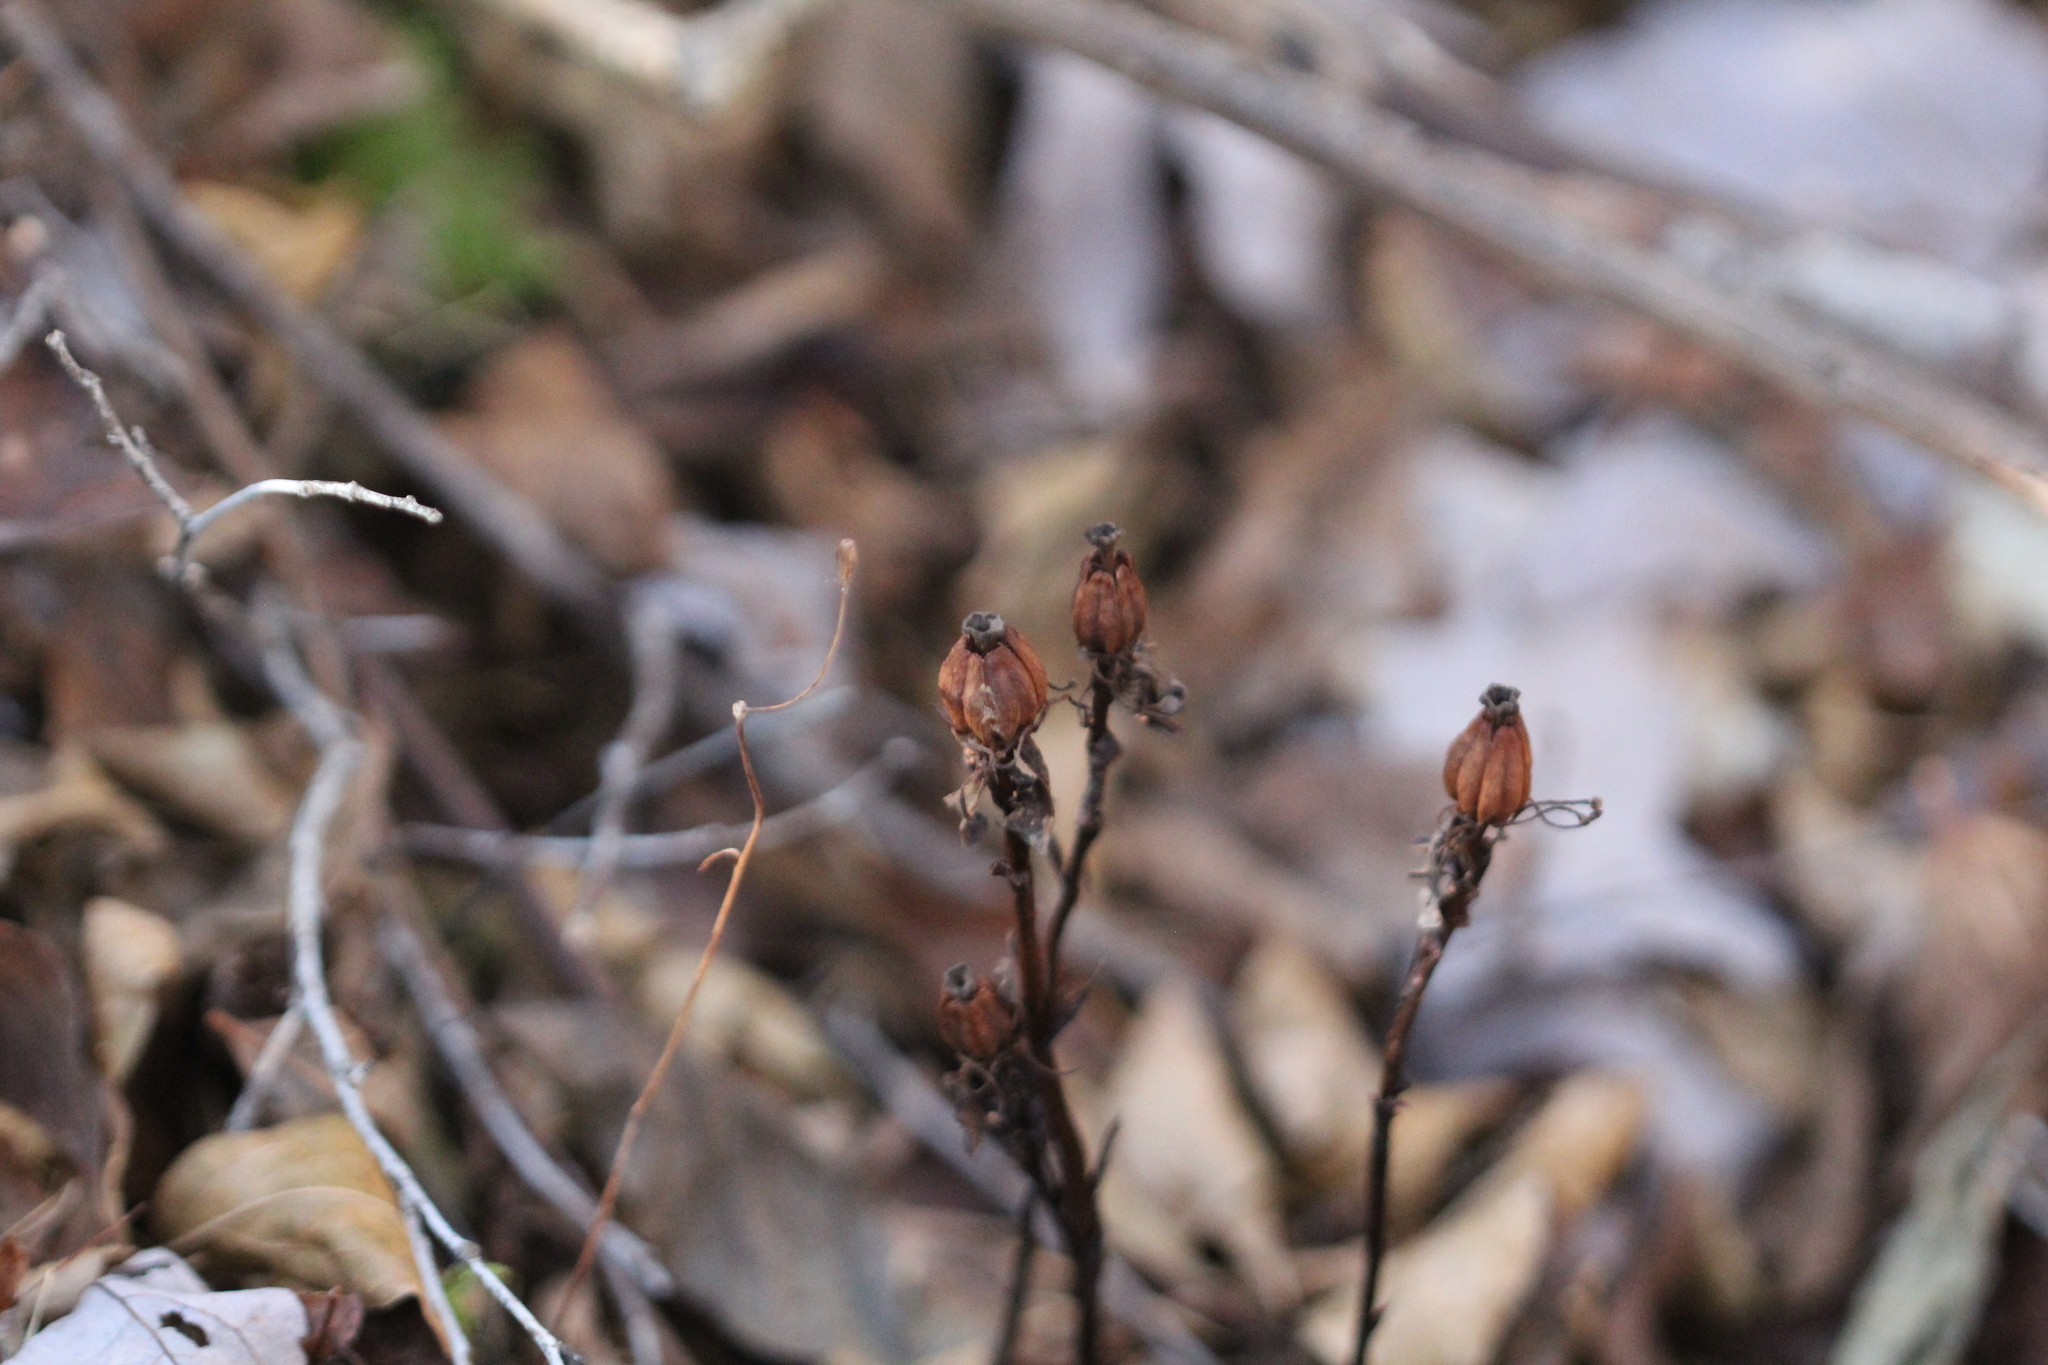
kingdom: Plantae
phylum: Tracheophyta
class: Magnoliopsida
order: Ericales
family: Ericaceae
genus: Monotropa
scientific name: Monotropa uniflora
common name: Convulsion root
